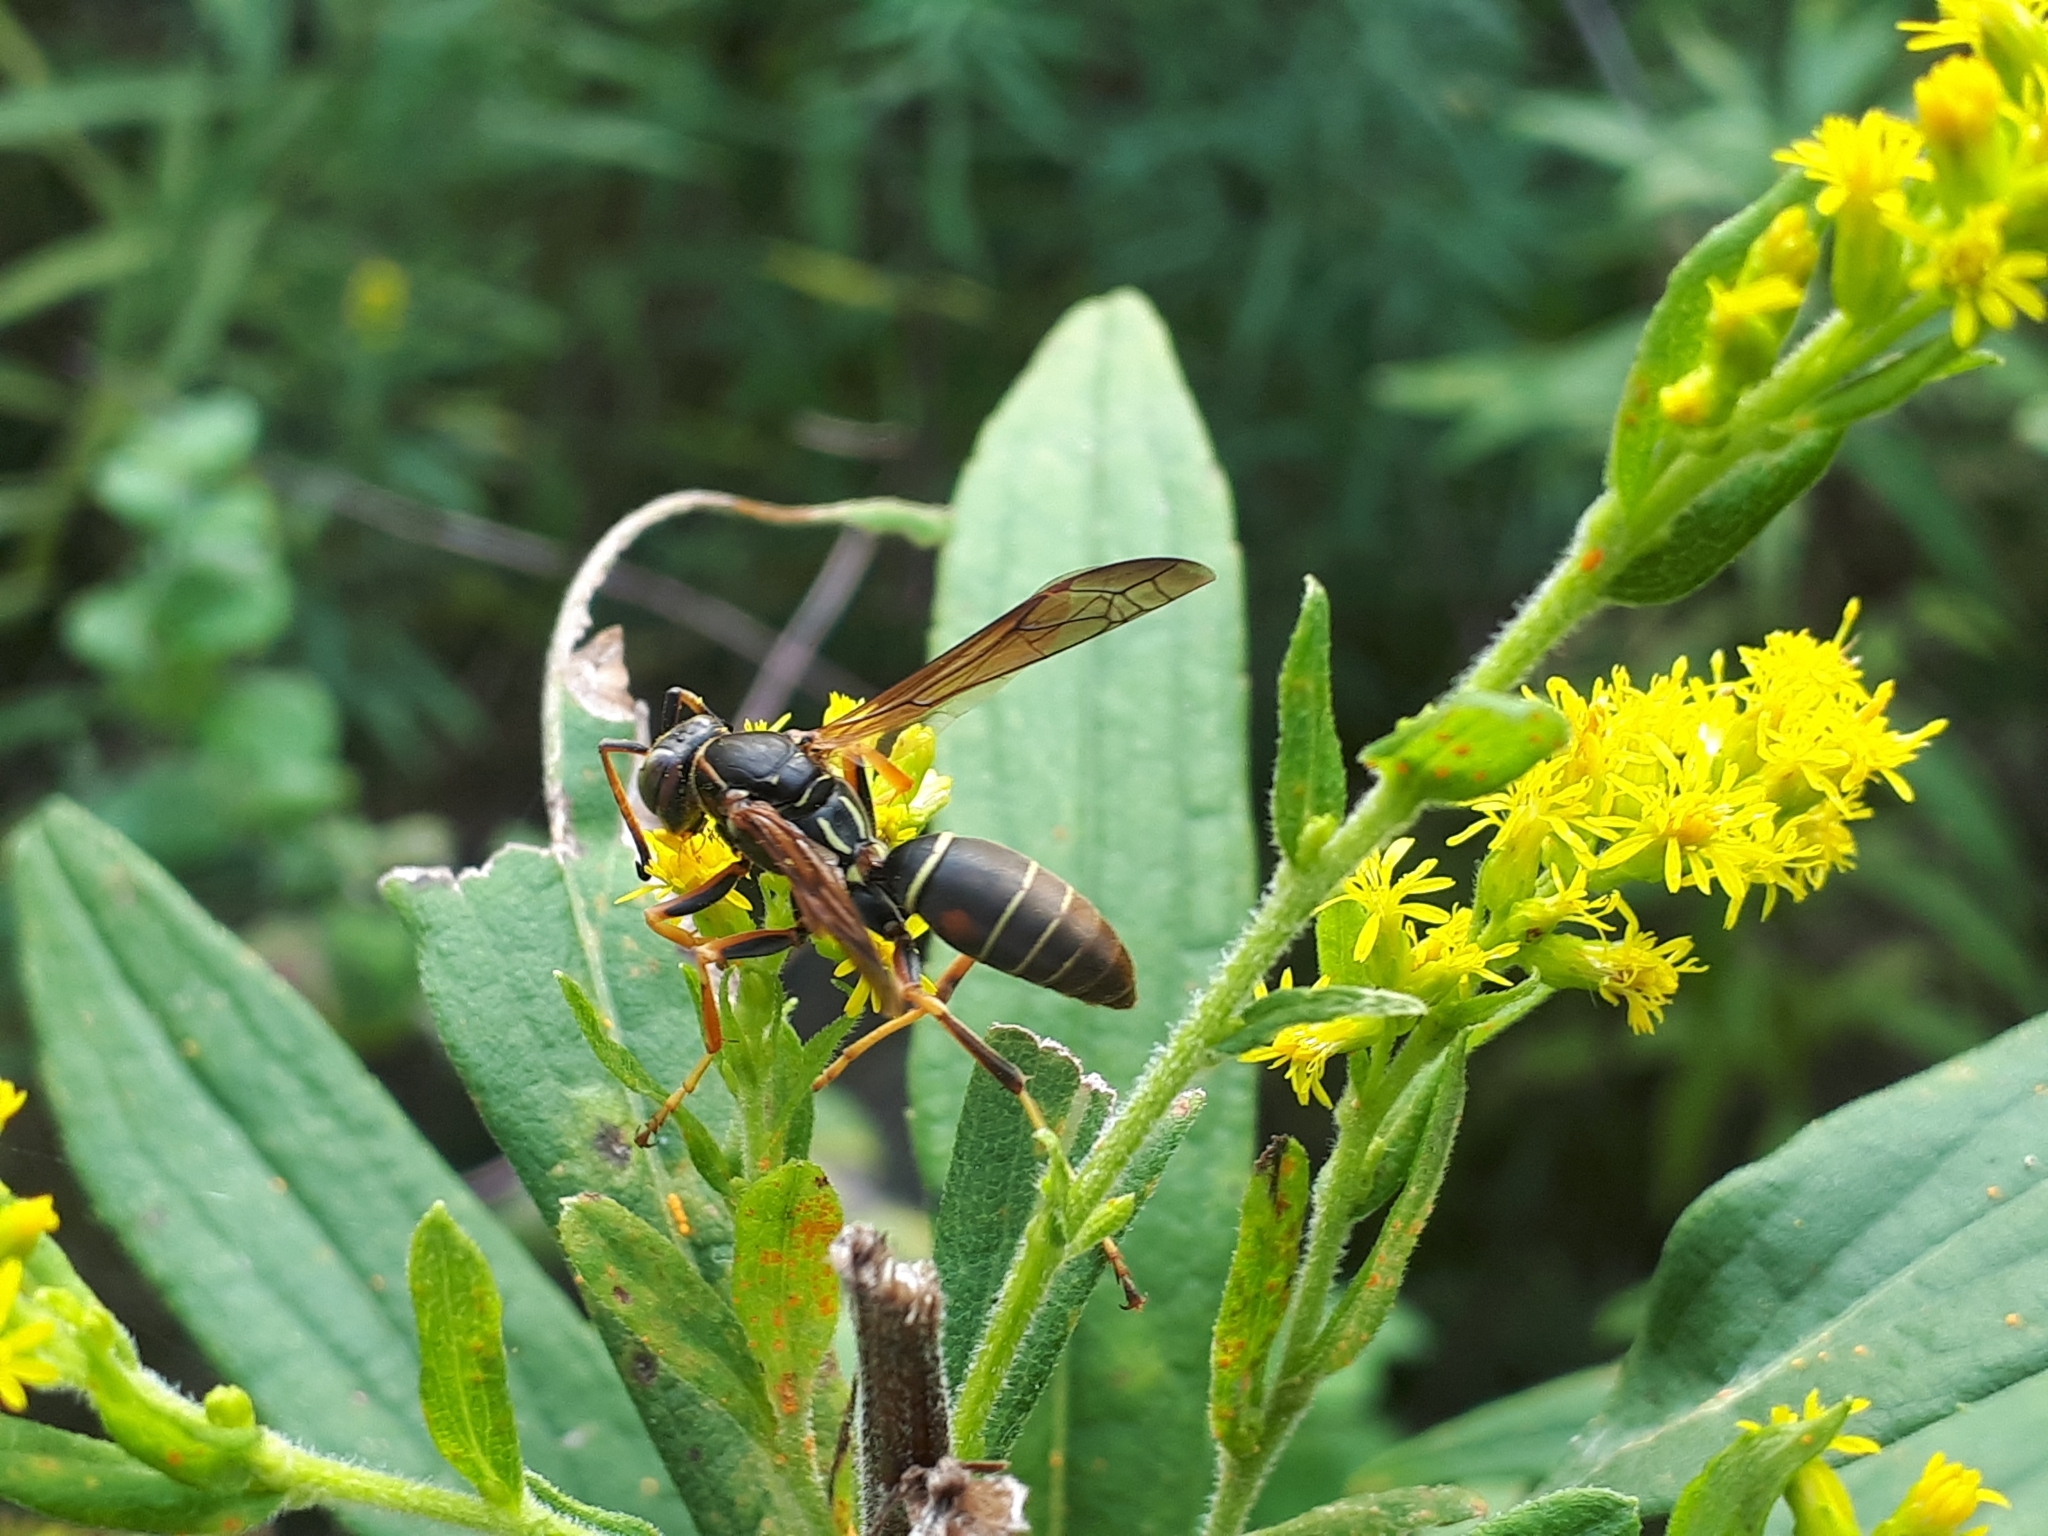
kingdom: Animalia
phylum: Arthropoda
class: Insecta
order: Hymenoptera
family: Eumenidae
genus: Polistes
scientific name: Polistes fuscatus
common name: Dark paper wasp
